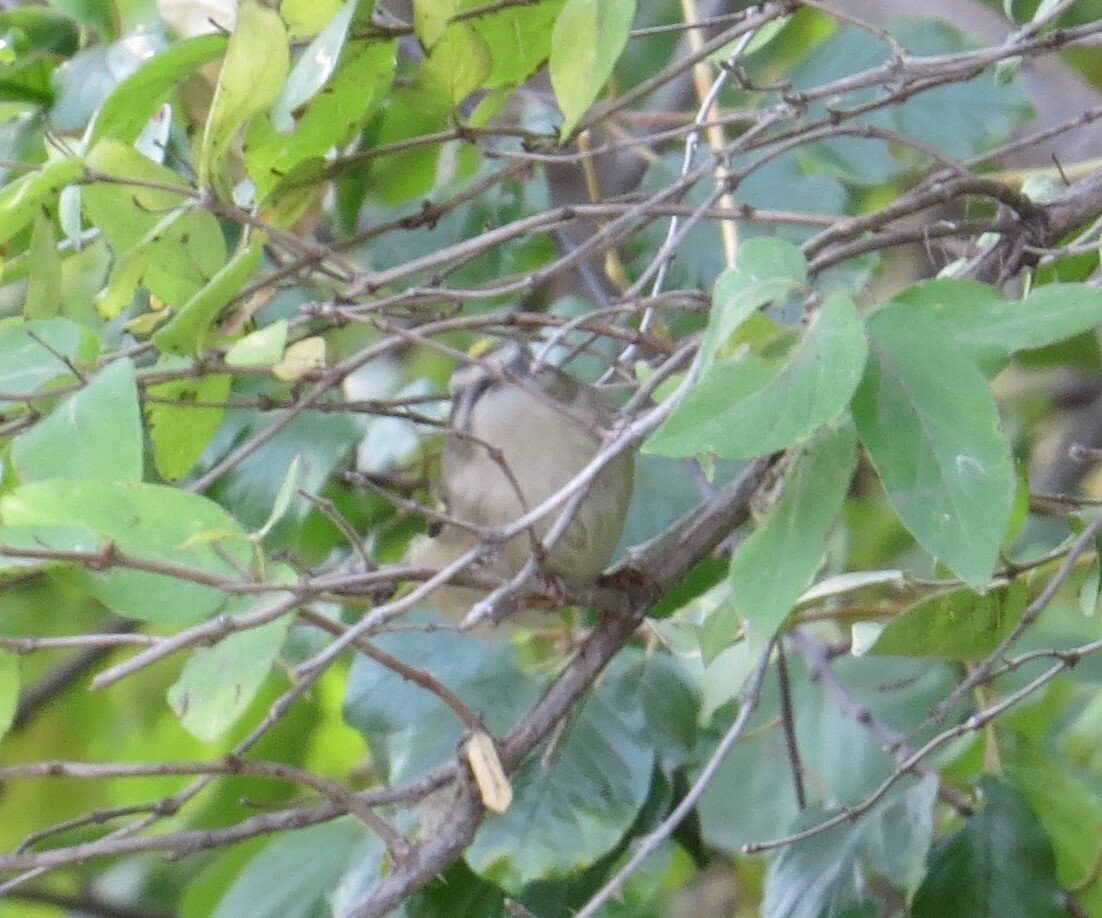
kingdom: Animalia
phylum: Chordata
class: Aves
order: Passeriformes
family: Regulidae
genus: Regulus
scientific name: Regulus satrapa
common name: Golden-crowned kinglet
